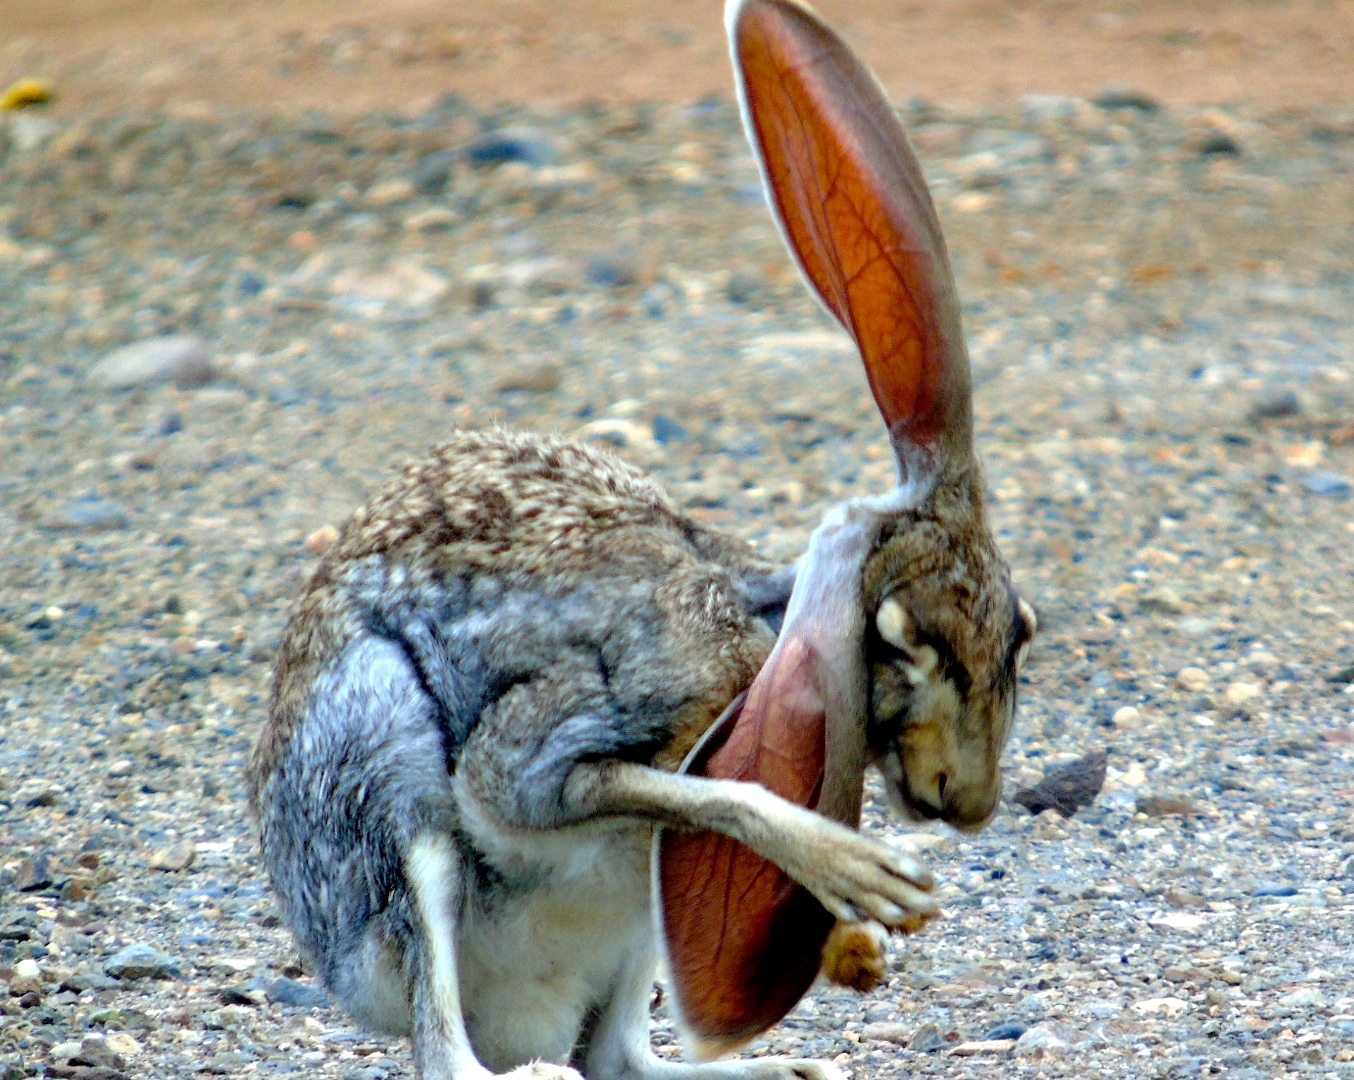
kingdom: Animalia
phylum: Chordata
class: Mammalia
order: Lagomorpha
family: Leporidae
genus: Lepus
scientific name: Lepus alleni
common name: Antelope jackrabbit
